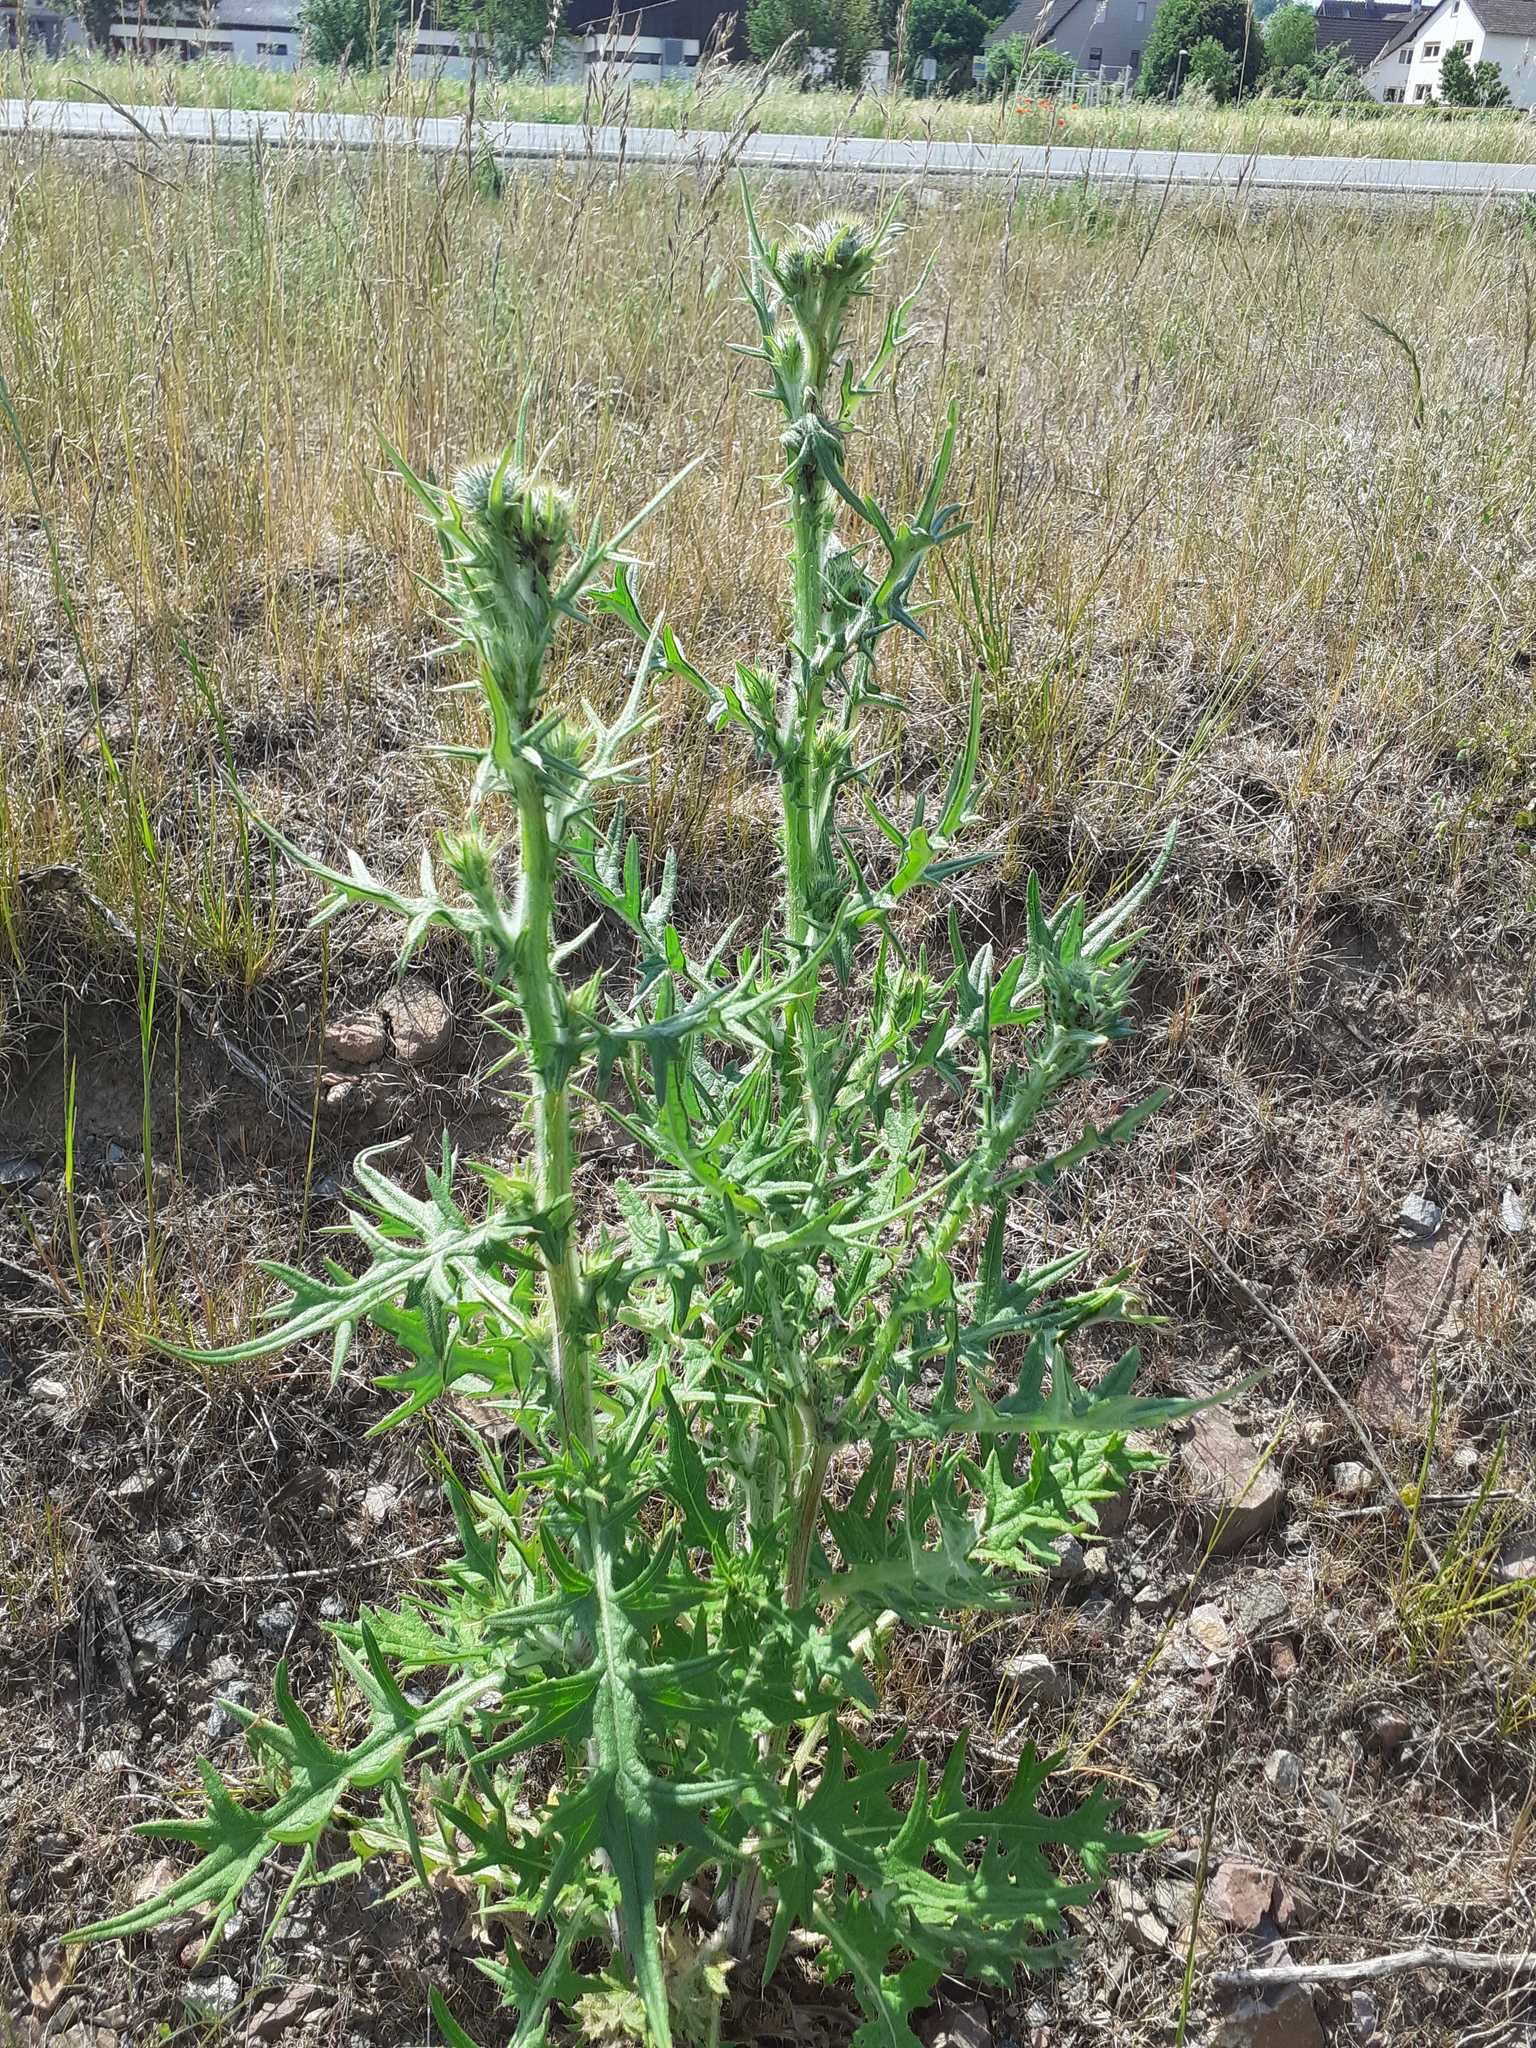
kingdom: Plantae
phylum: Tracheophyta
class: Magnoliopsida
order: Asterales
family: Asteraceae
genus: Cirsium
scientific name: Cirsium vulgare
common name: Bull thistle
